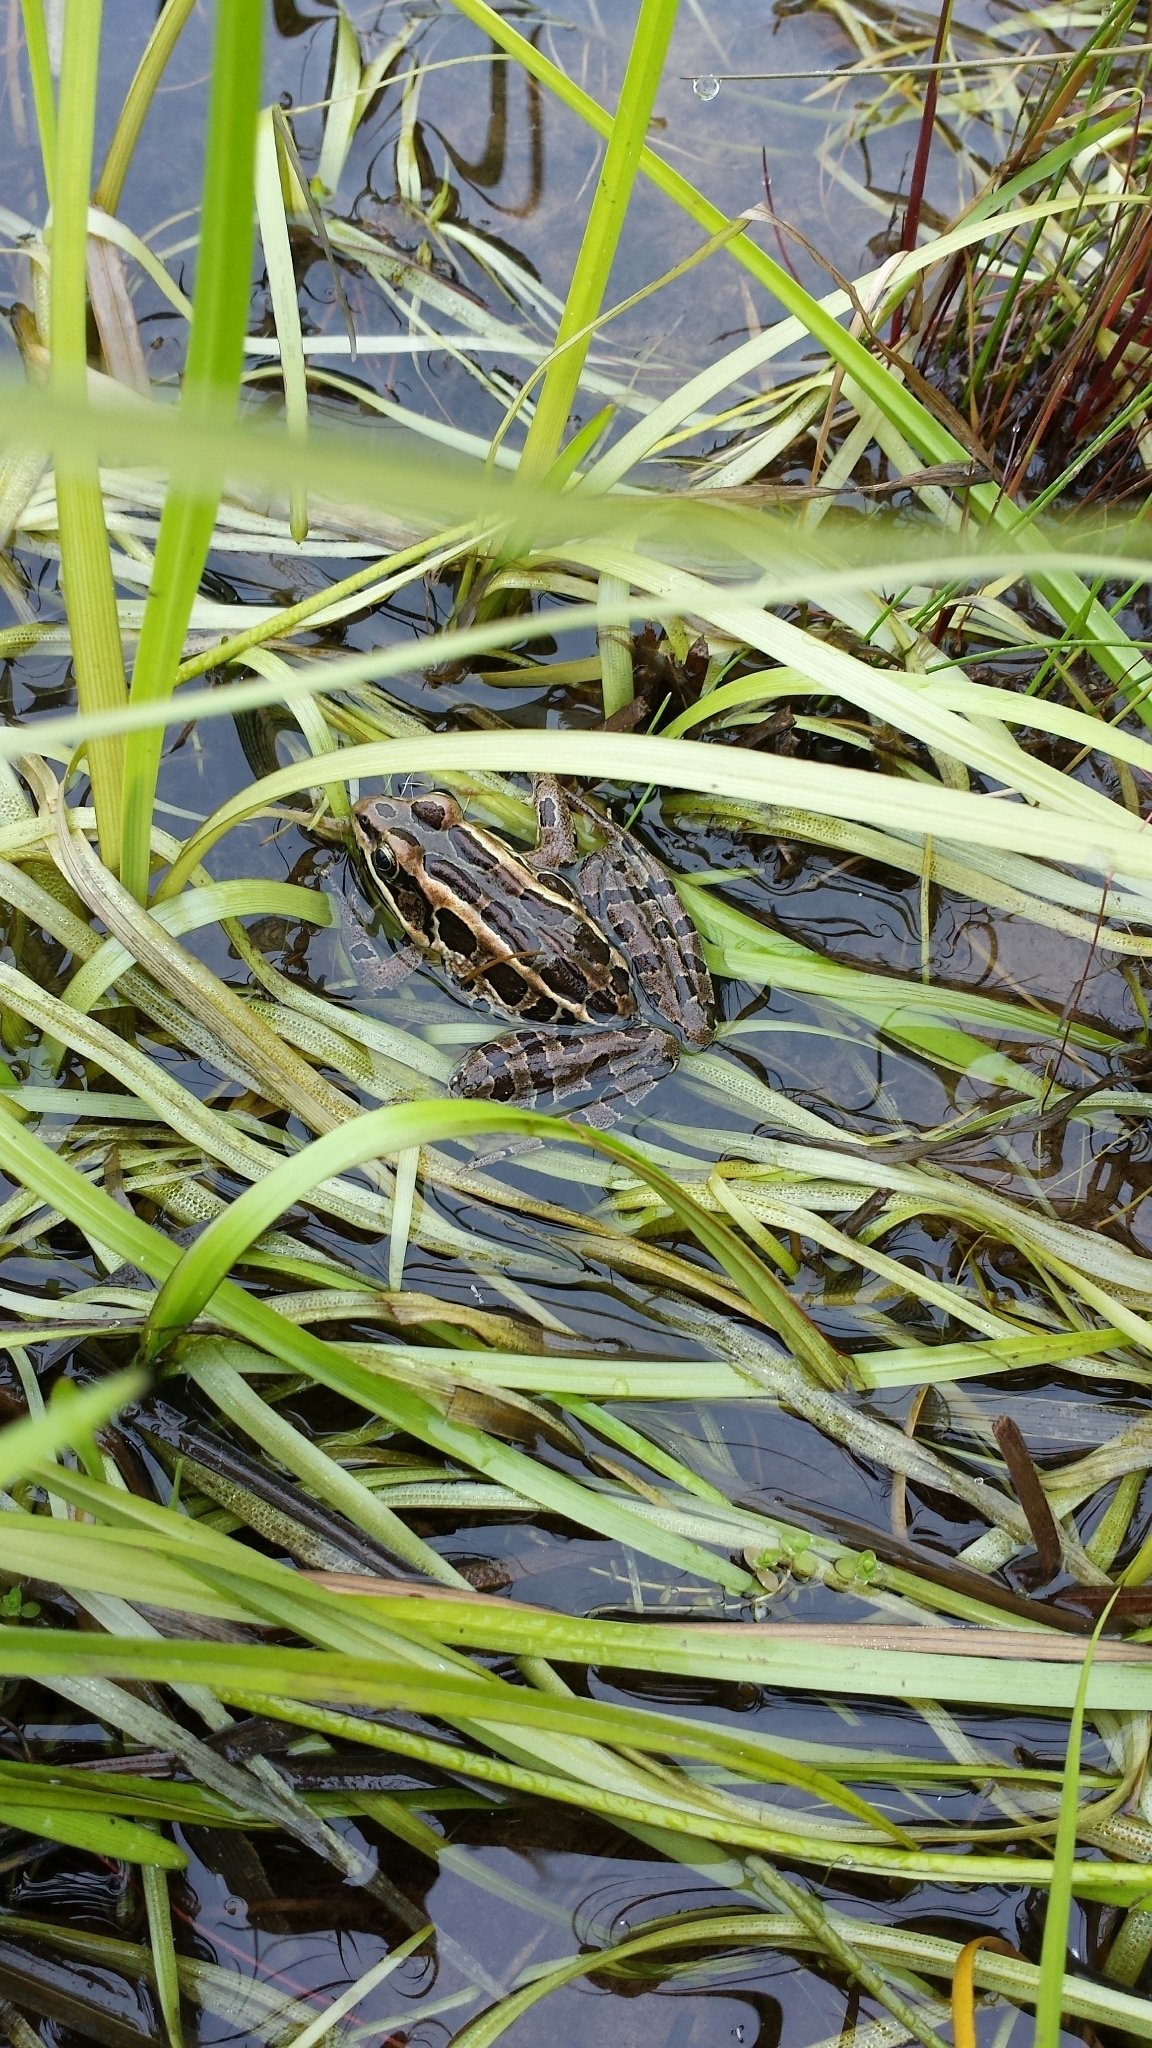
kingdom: Animalia
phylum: Chordata
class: Amphibia
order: Anura
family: Ranidae
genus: Lithobates
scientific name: Lithobates palustris
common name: Pickerel frog
